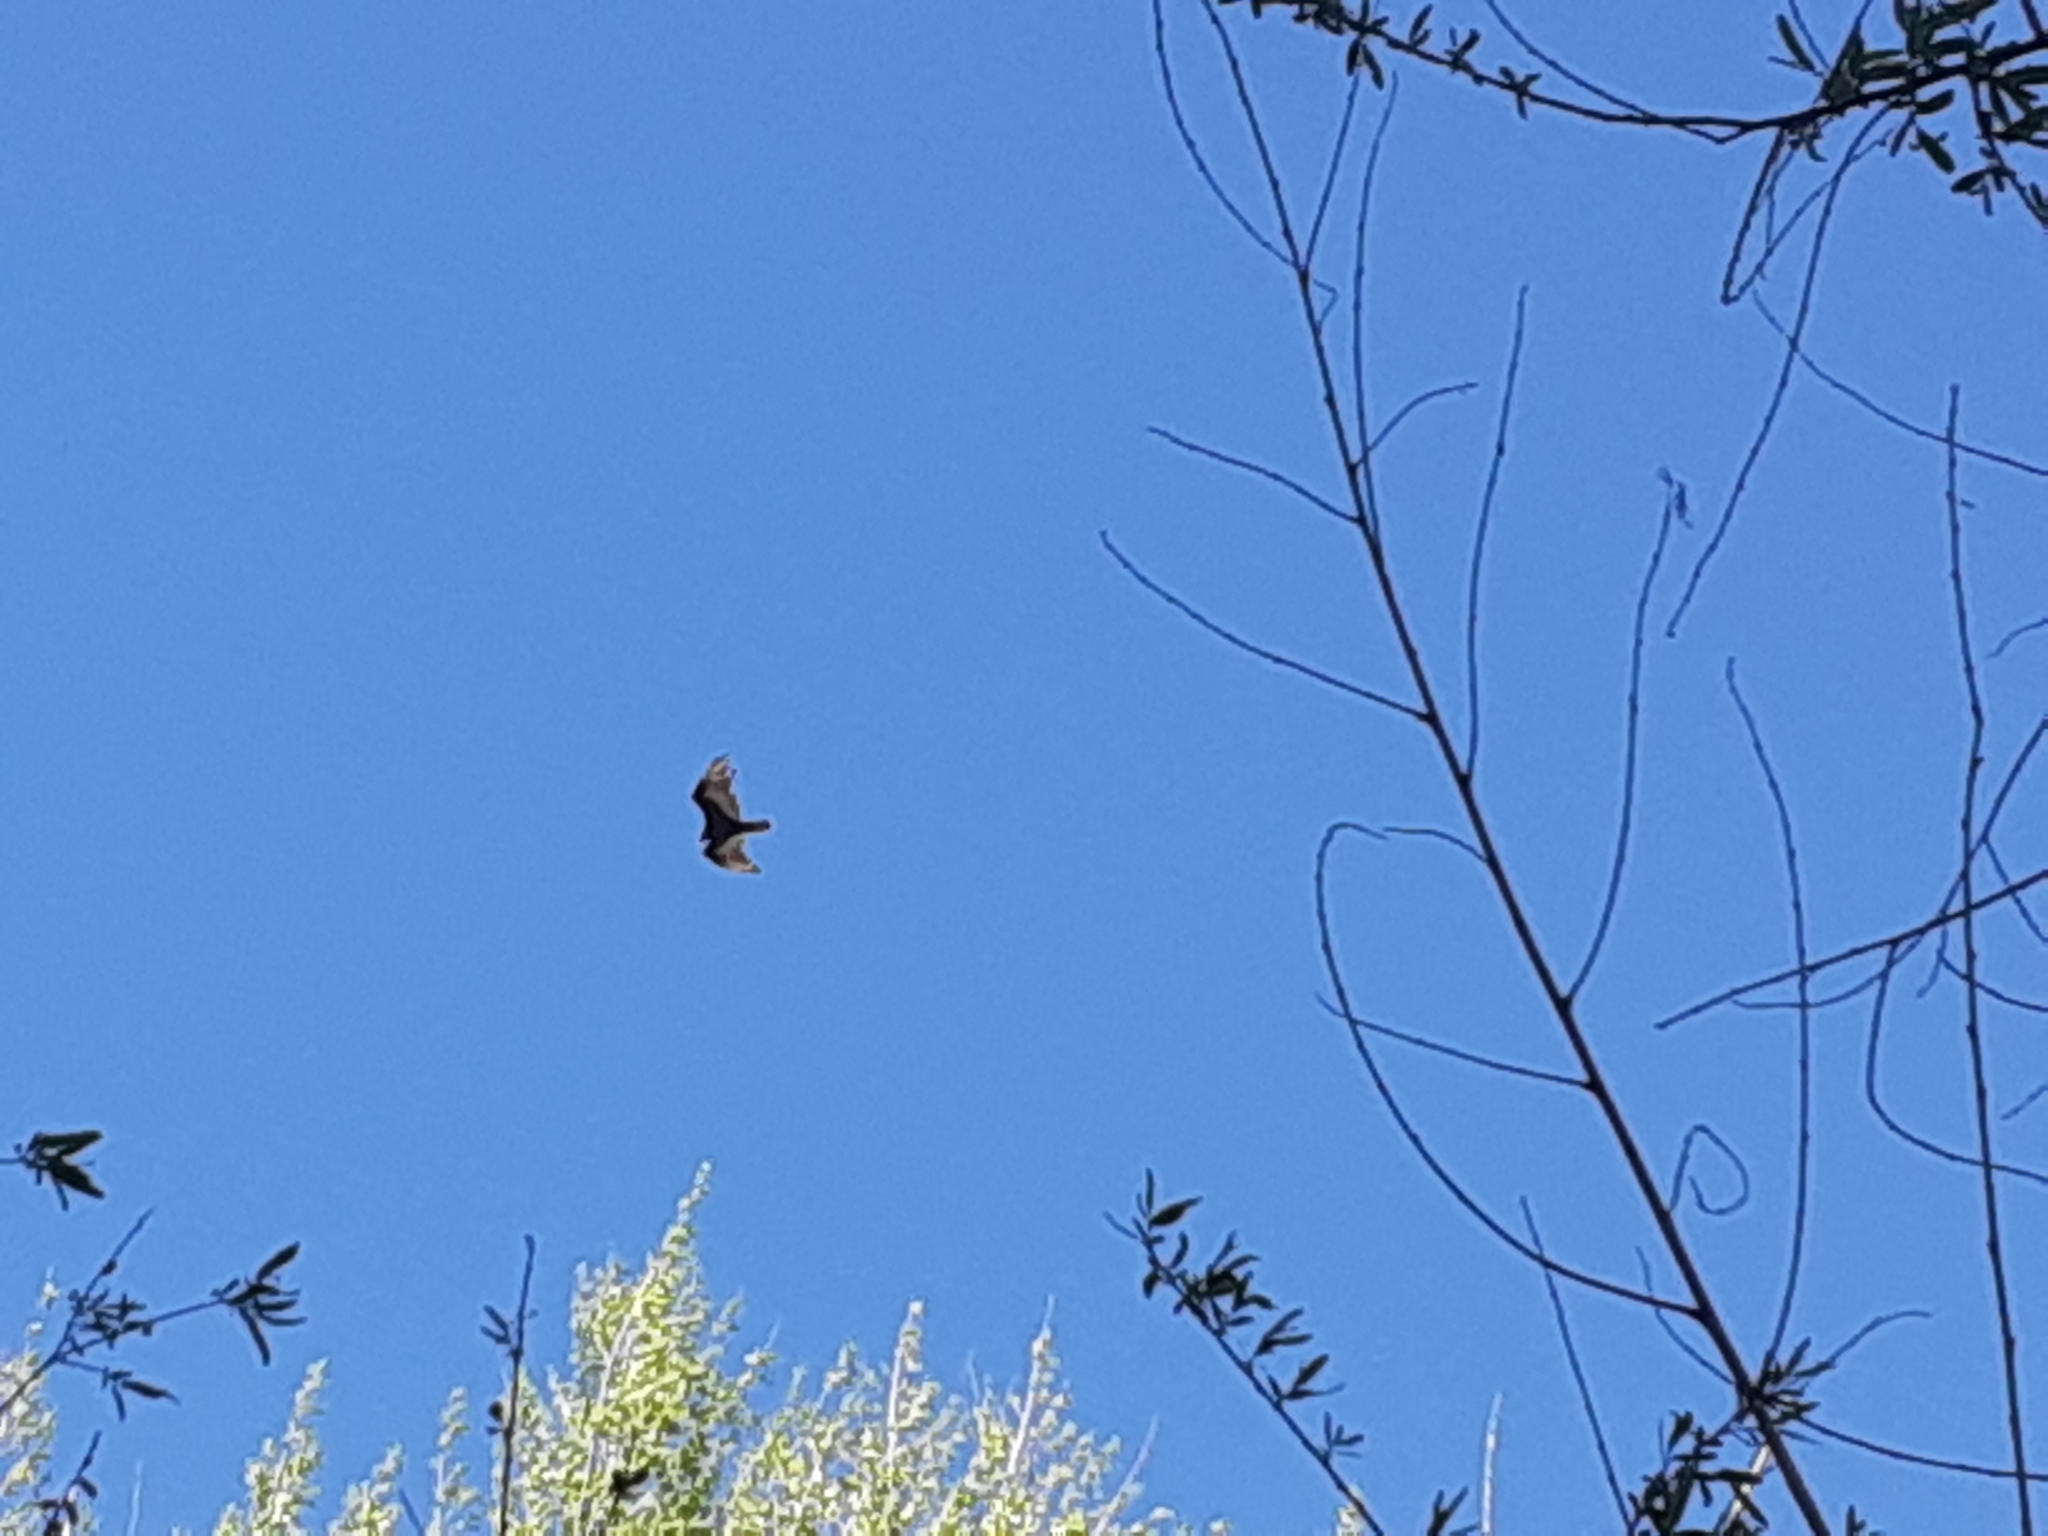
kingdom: Animalia
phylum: Chordata
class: Aves
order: Accipitriformes
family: Cathartidae
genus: Cathartes
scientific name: Cathartes aura
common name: Turkey vulture
